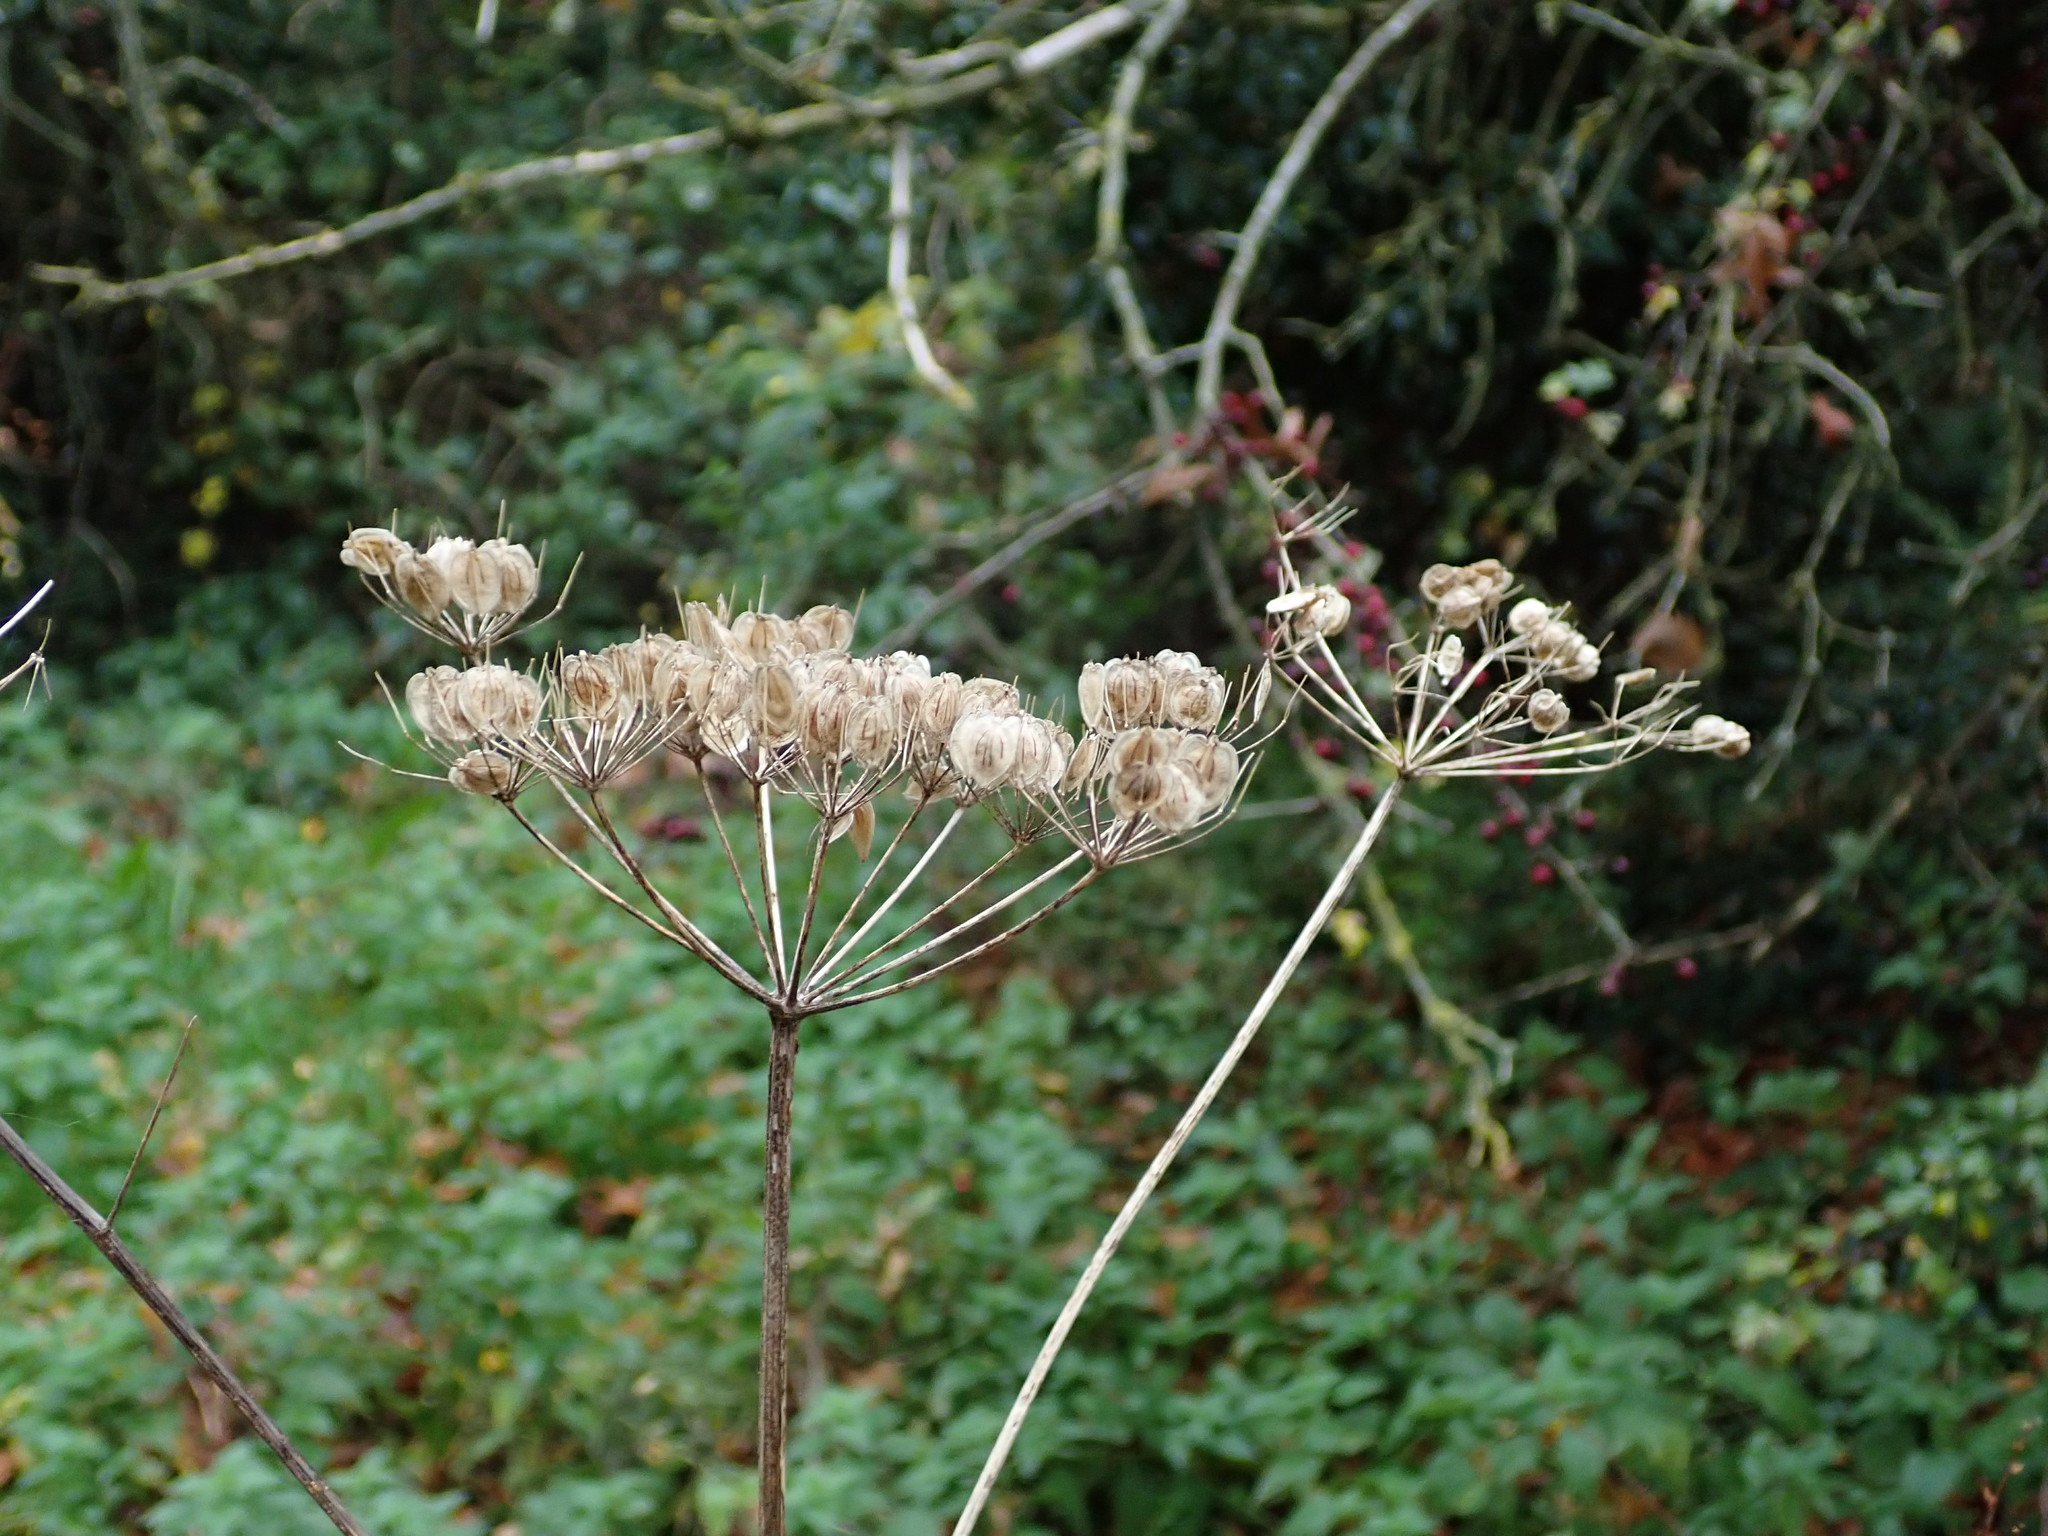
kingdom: Plantae
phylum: Tracheophyta
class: Magnoliopsida
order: Apiales
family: Apiaceae
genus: Heracleum
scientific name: Heracleum sphondylium
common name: Hogweed
